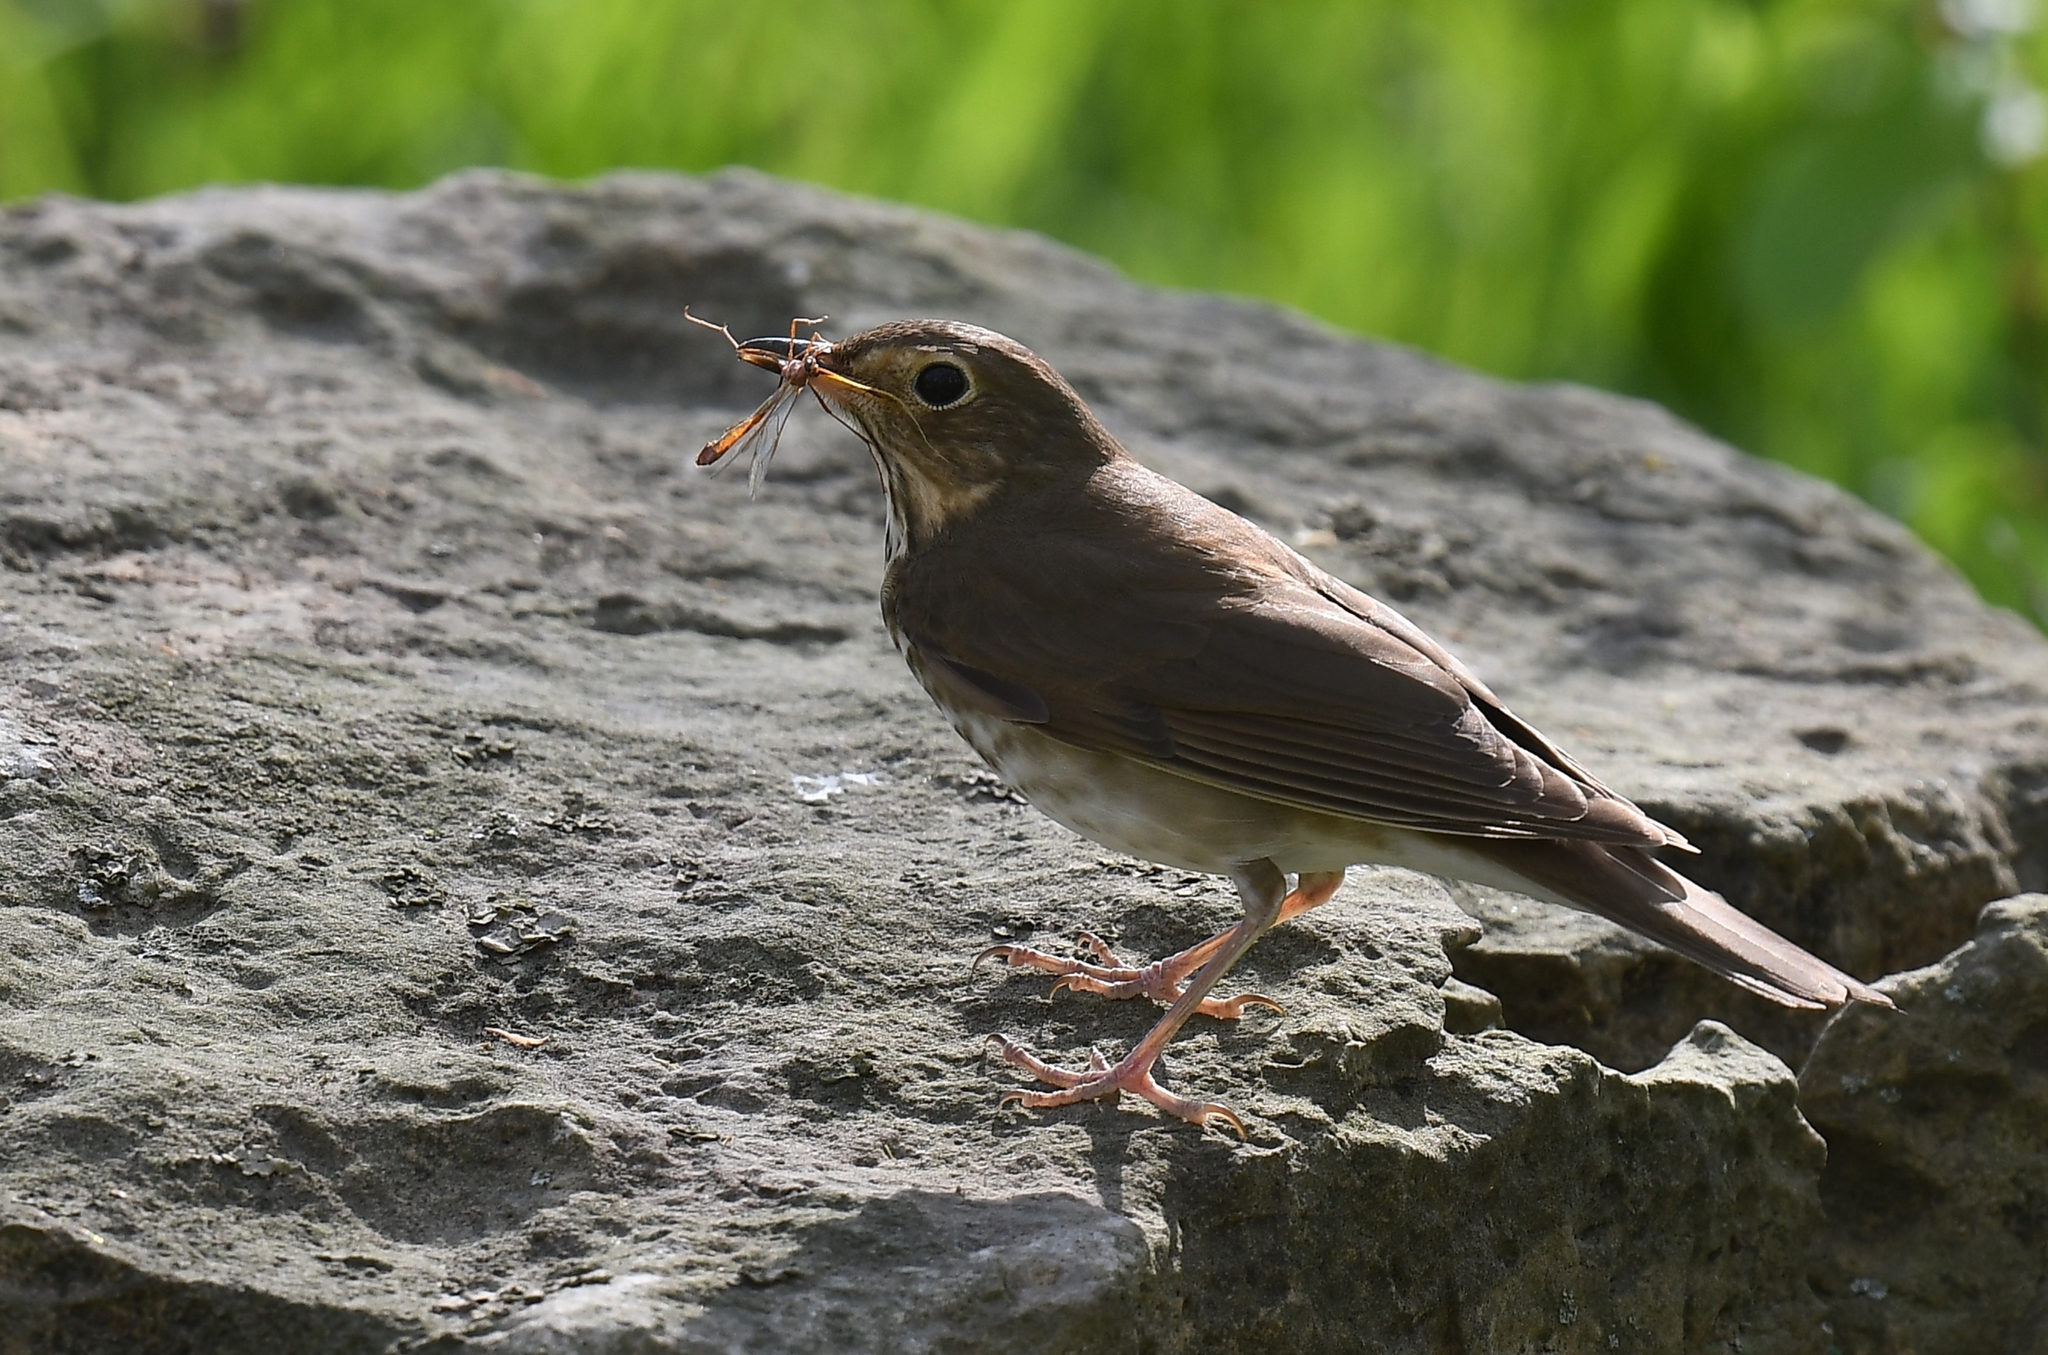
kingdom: Animalia
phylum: Chordata
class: Aves
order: Passeriformes
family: Turdidae
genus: Catharus
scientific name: Catharus ustulatus
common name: Swainson's thrush
